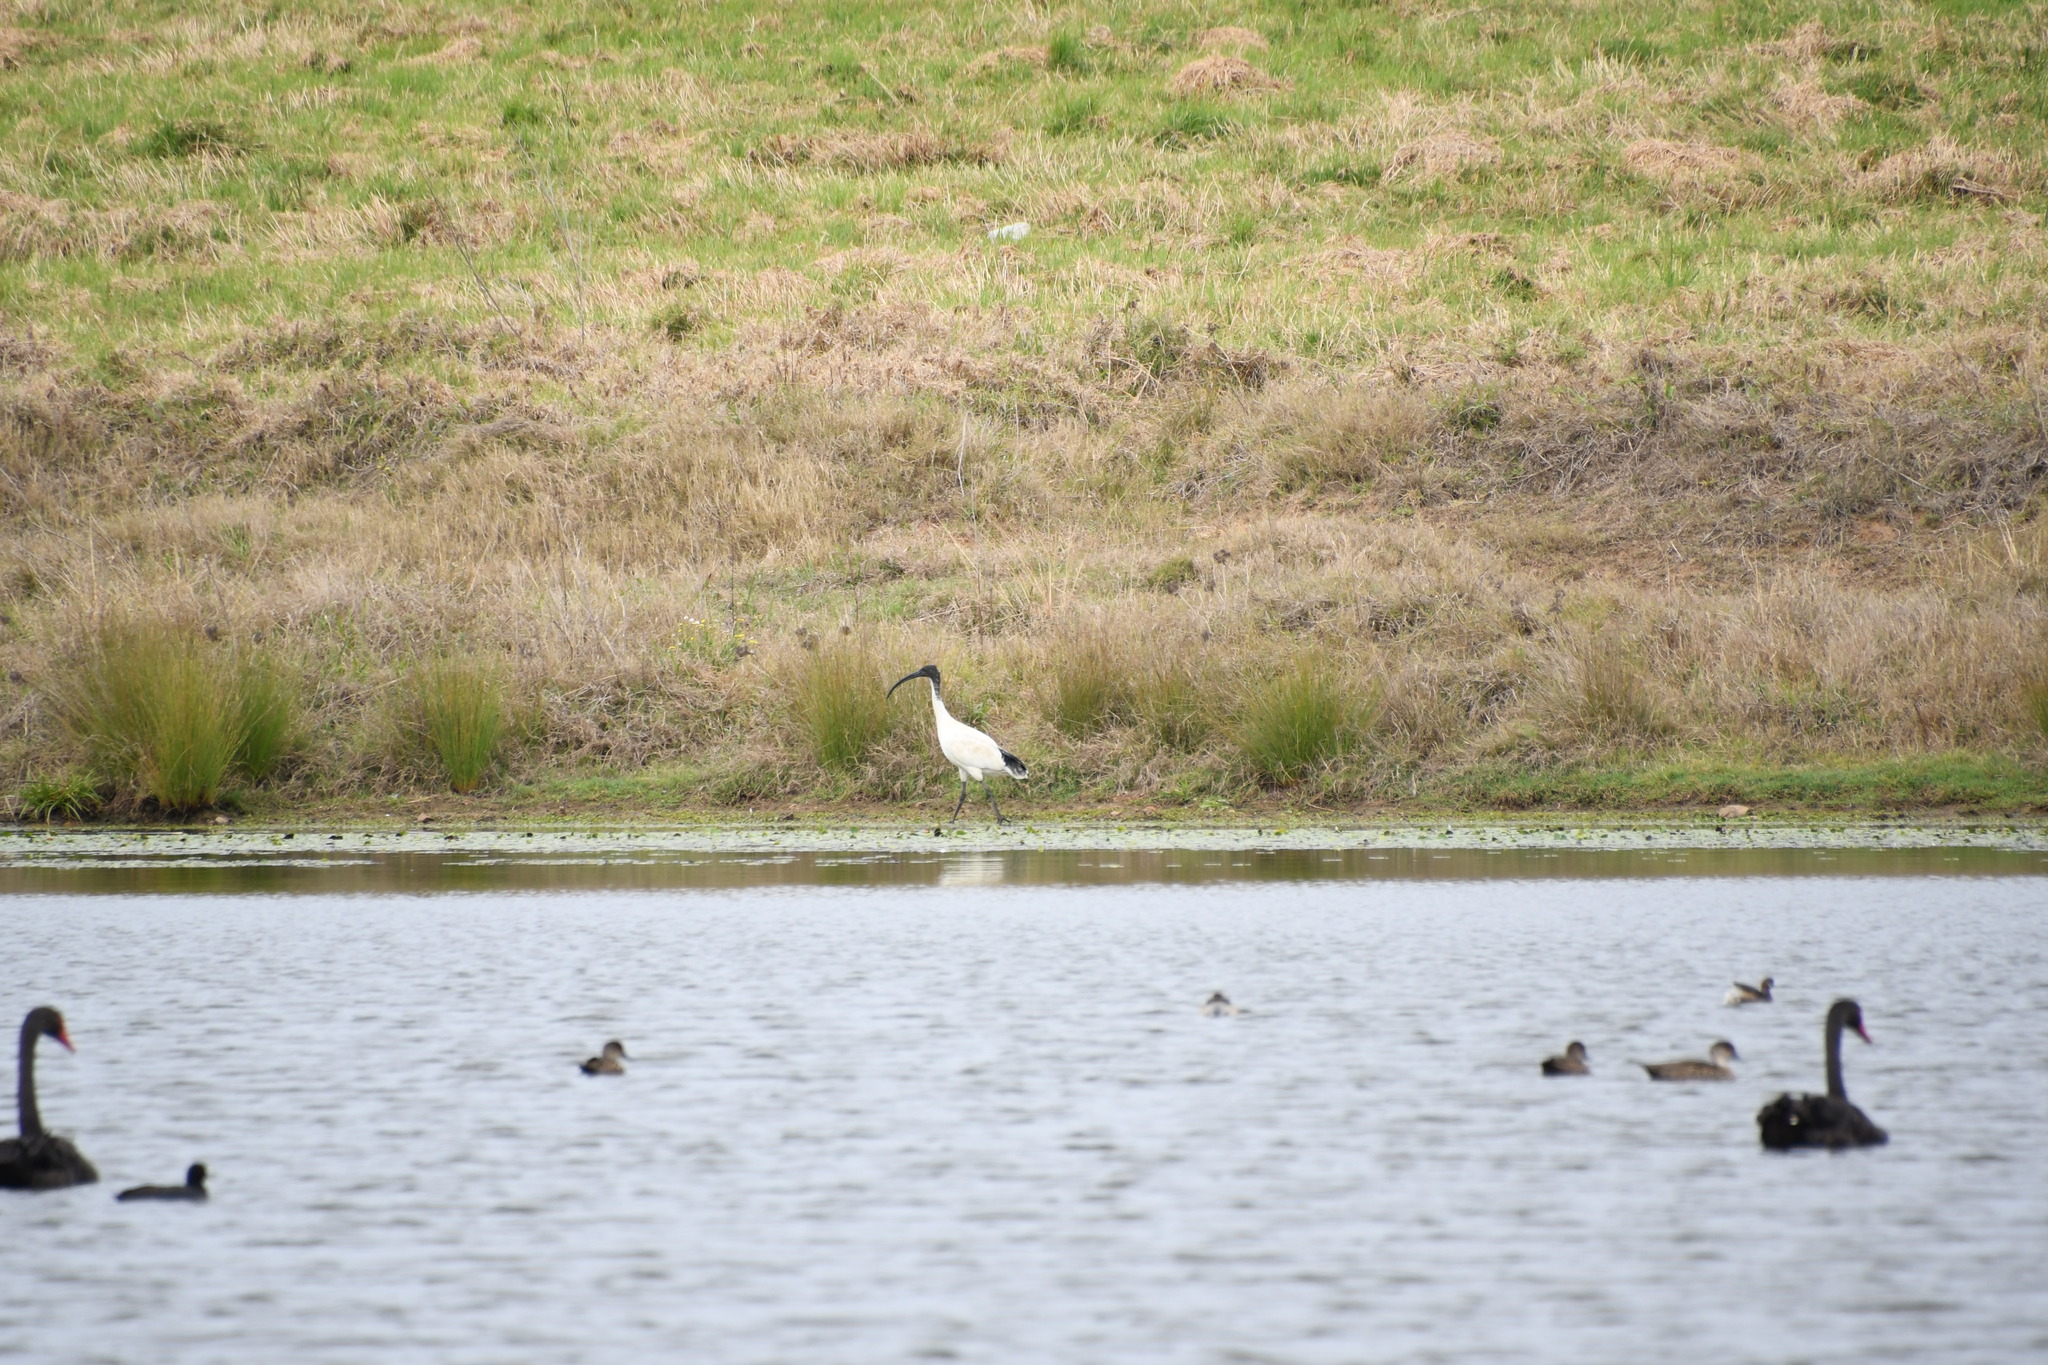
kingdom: Animalia
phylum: Chordata
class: Aves
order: Pelecaniformes
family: Threskiornithidae
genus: Threskiornis
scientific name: Threskiornis molucca
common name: Australian white ibis
